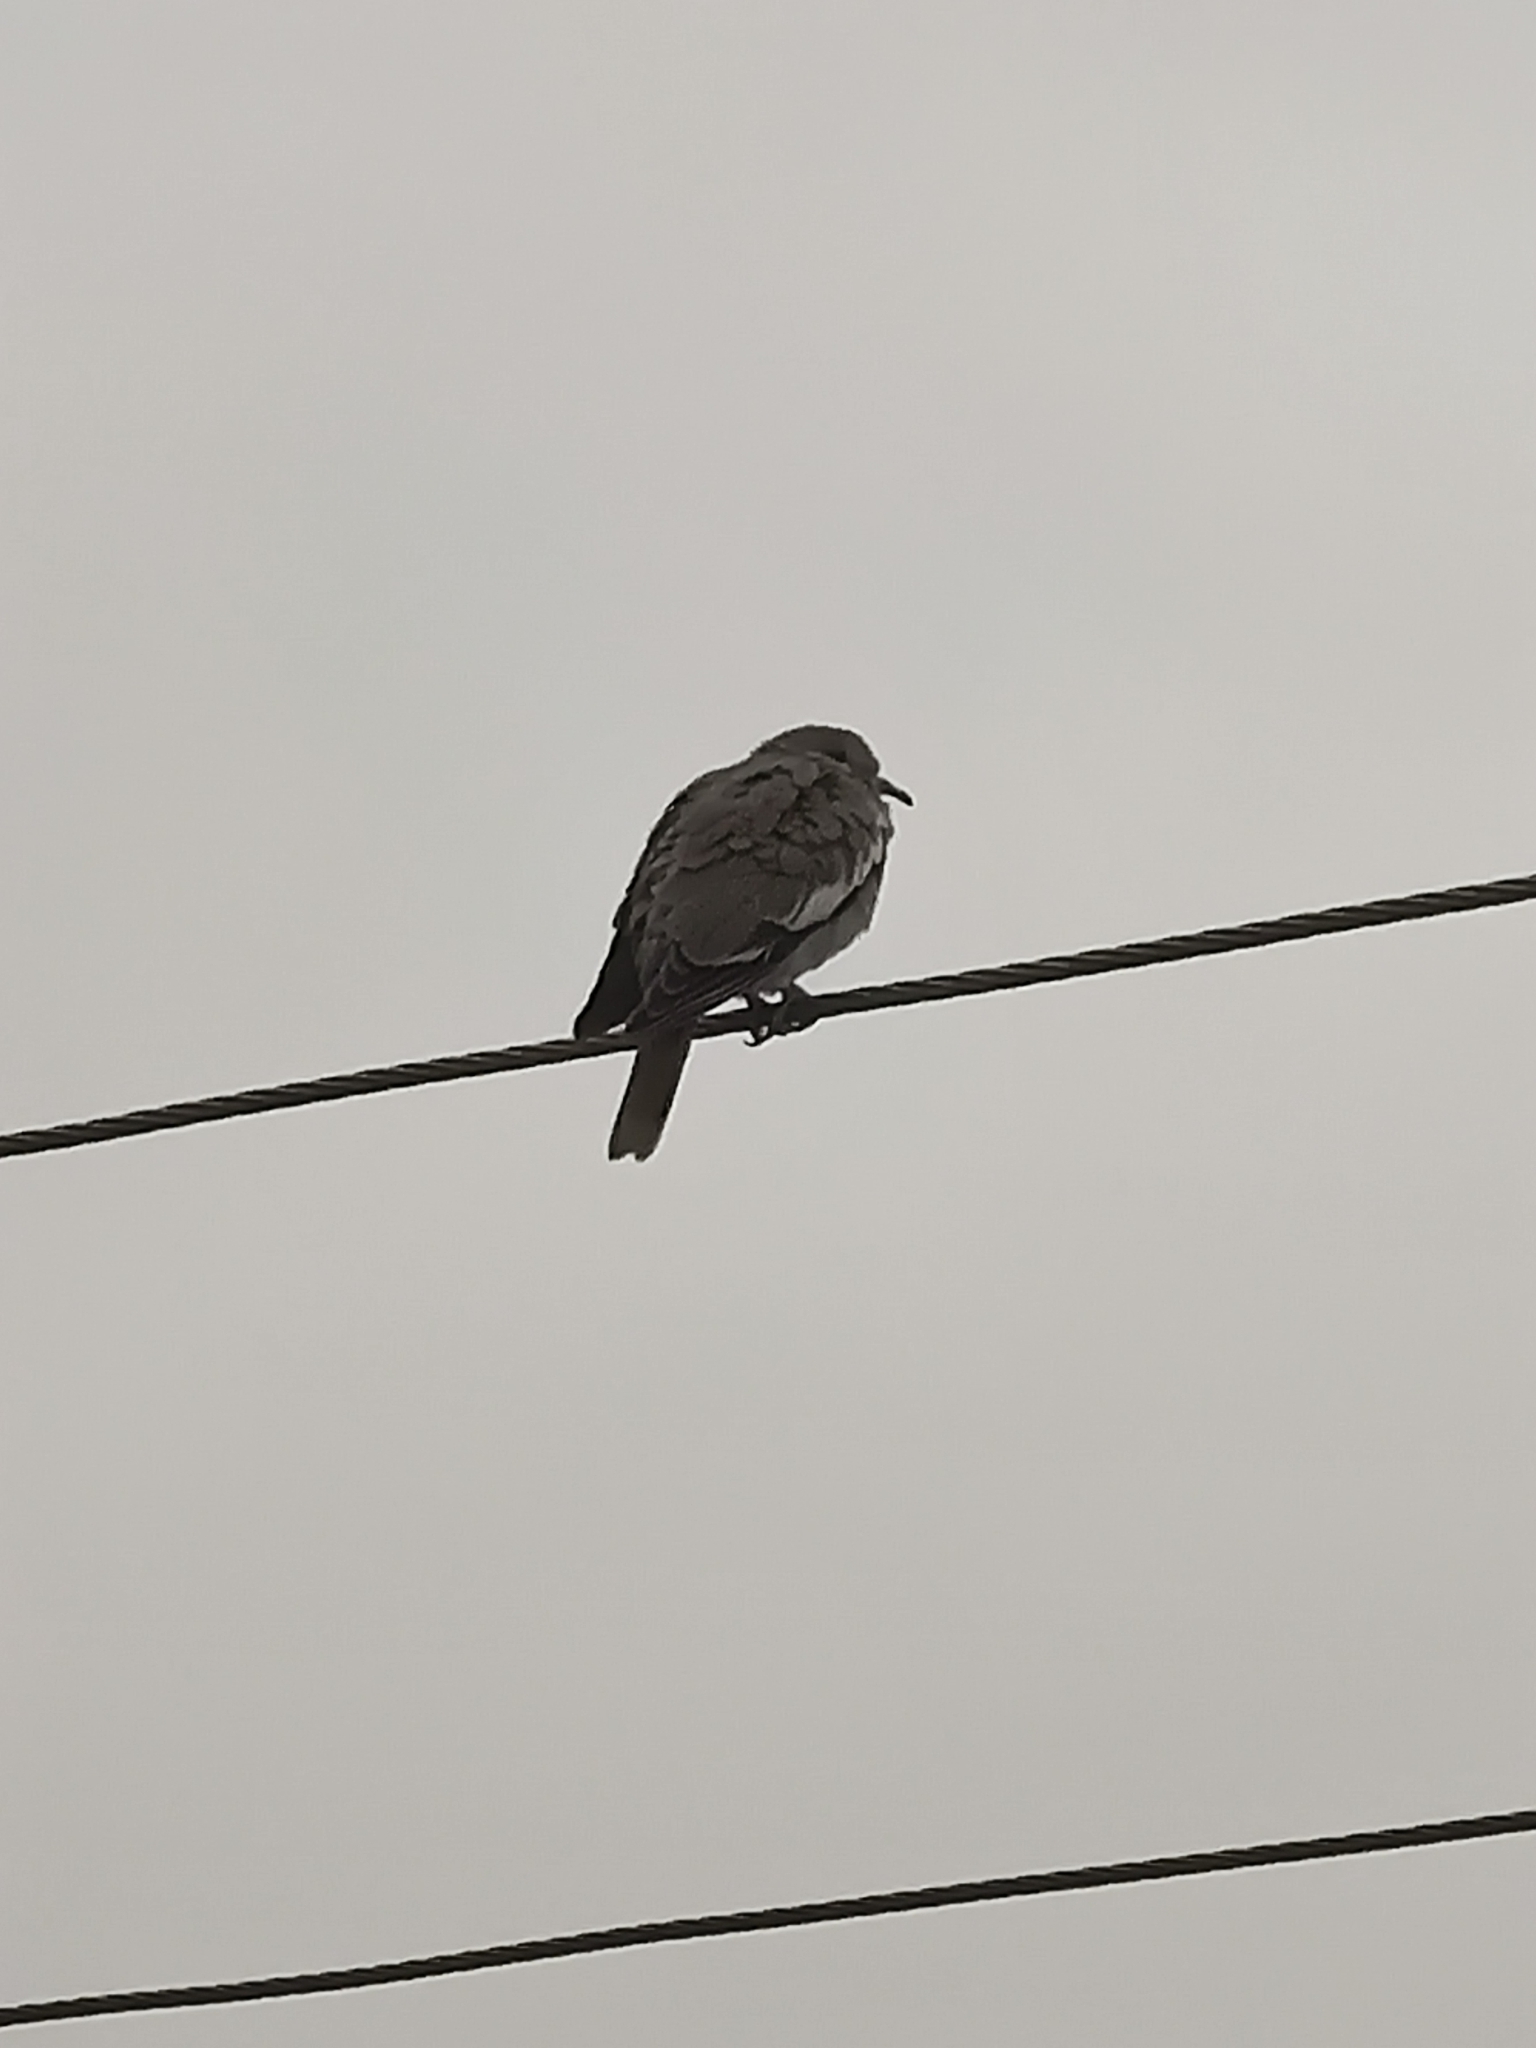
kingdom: Animalia
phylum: Chordata
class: Aves
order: Columbiformes
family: Columbidae
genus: Zenaida
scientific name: Zenaida asiatica
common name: White-winged dove
